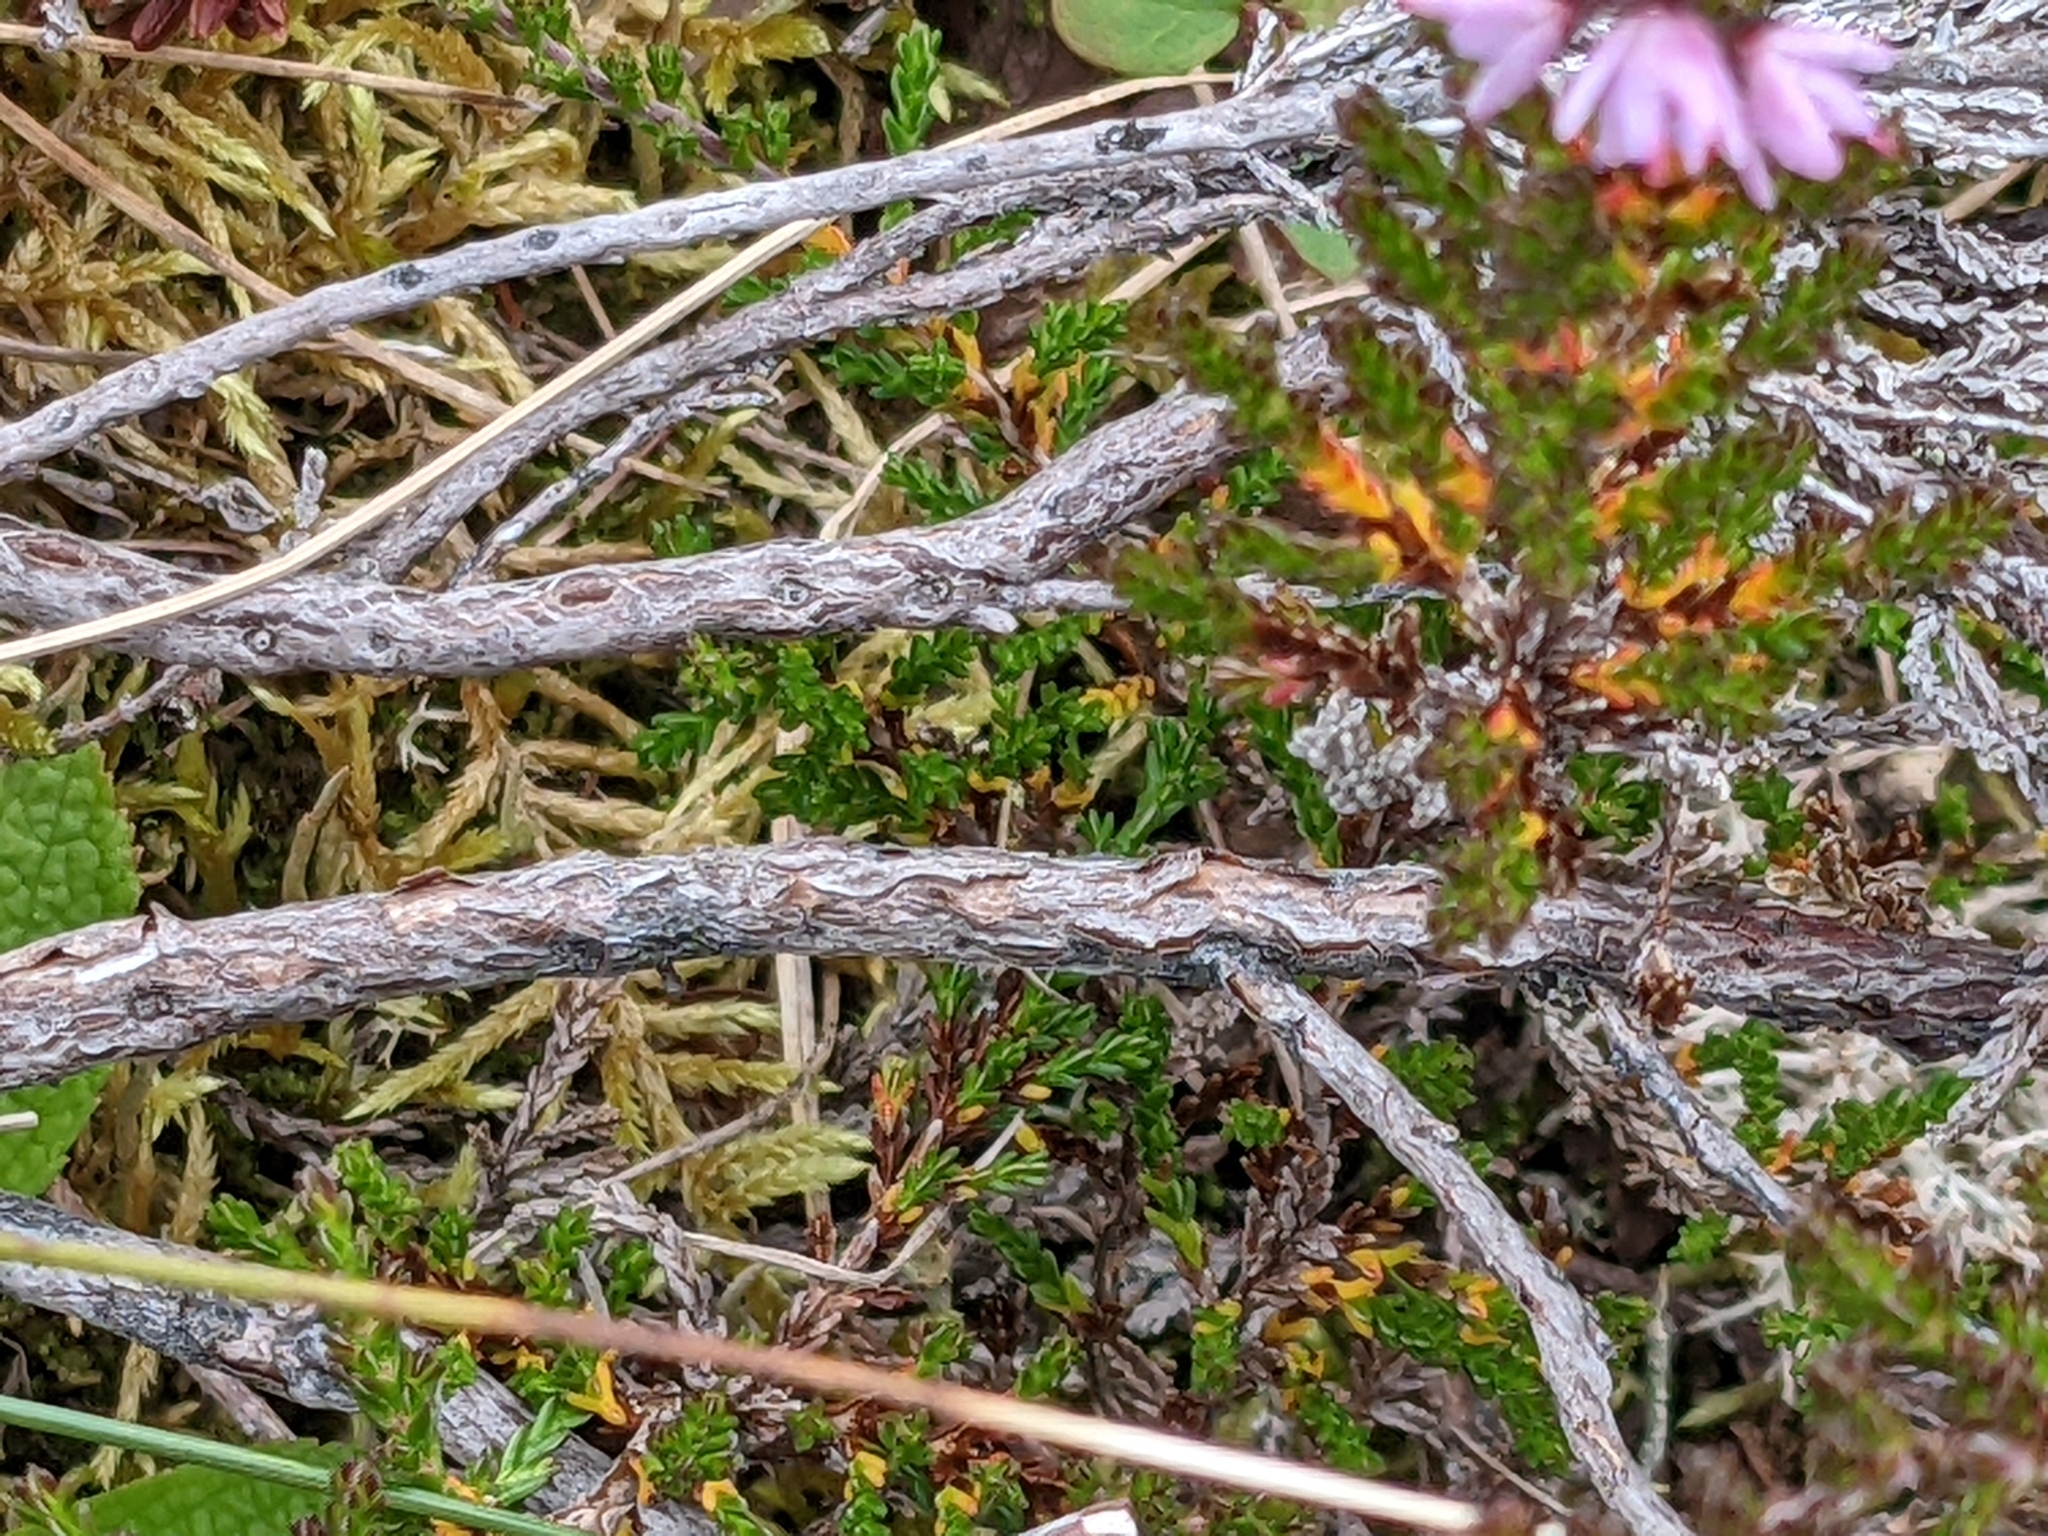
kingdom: Plantae
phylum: Tracheophyta
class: Magnoliopsida
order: Ericales
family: Ericaceae
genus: Calluna
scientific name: Calluna vulgaris
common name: Heather
